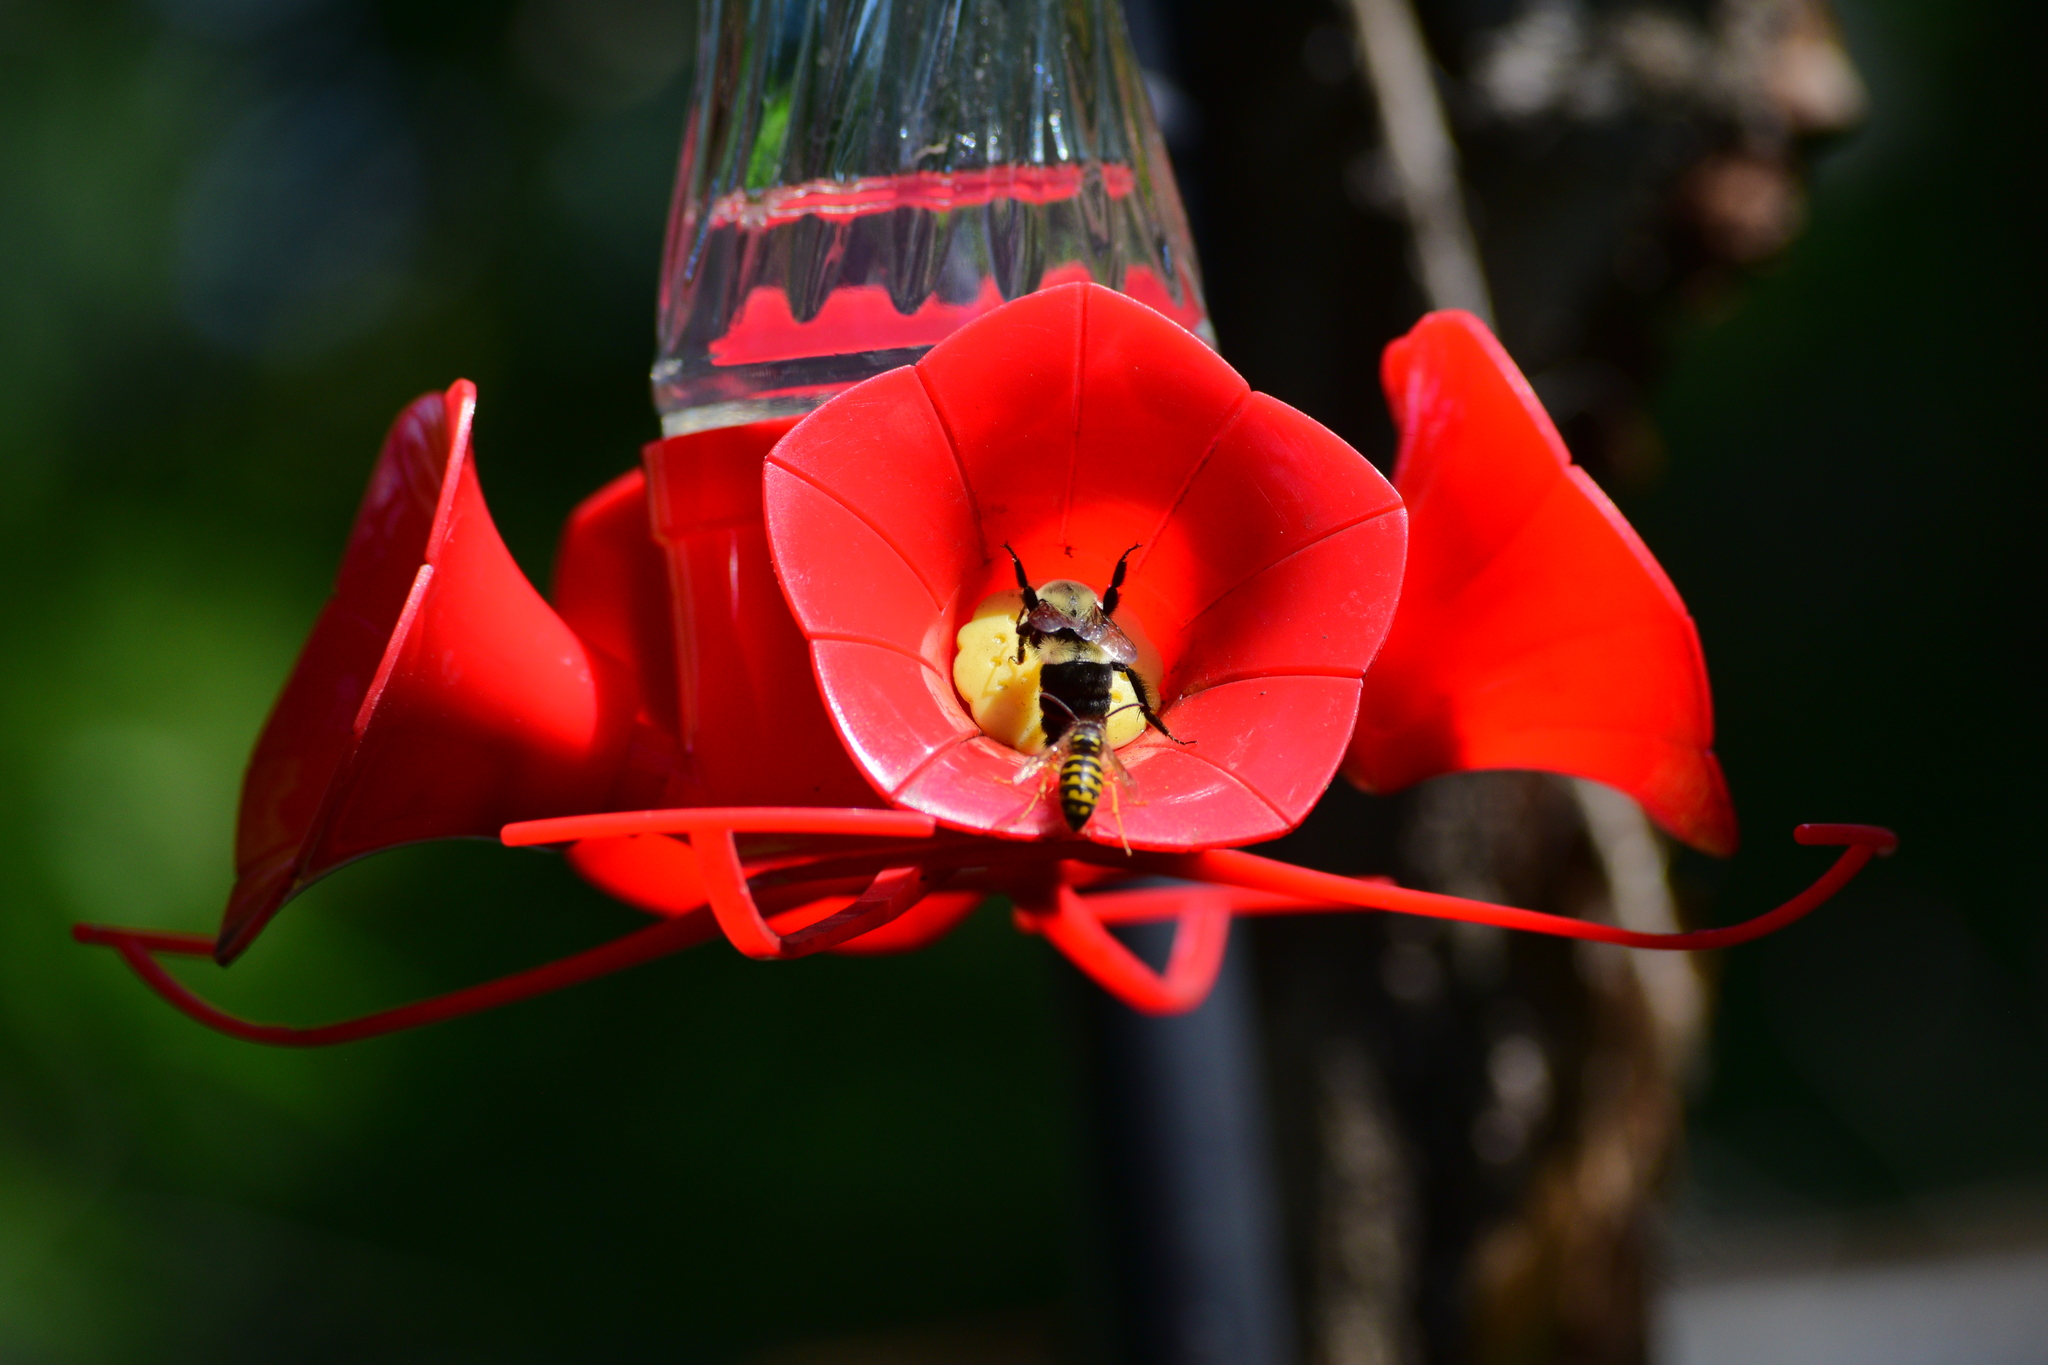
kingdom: Animalia
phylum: Arthropoda
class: Insecta
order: Hymenoptera
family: Apidae
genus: Bombus
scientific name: Bombus impatiens
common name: Common eastern bumble bee
